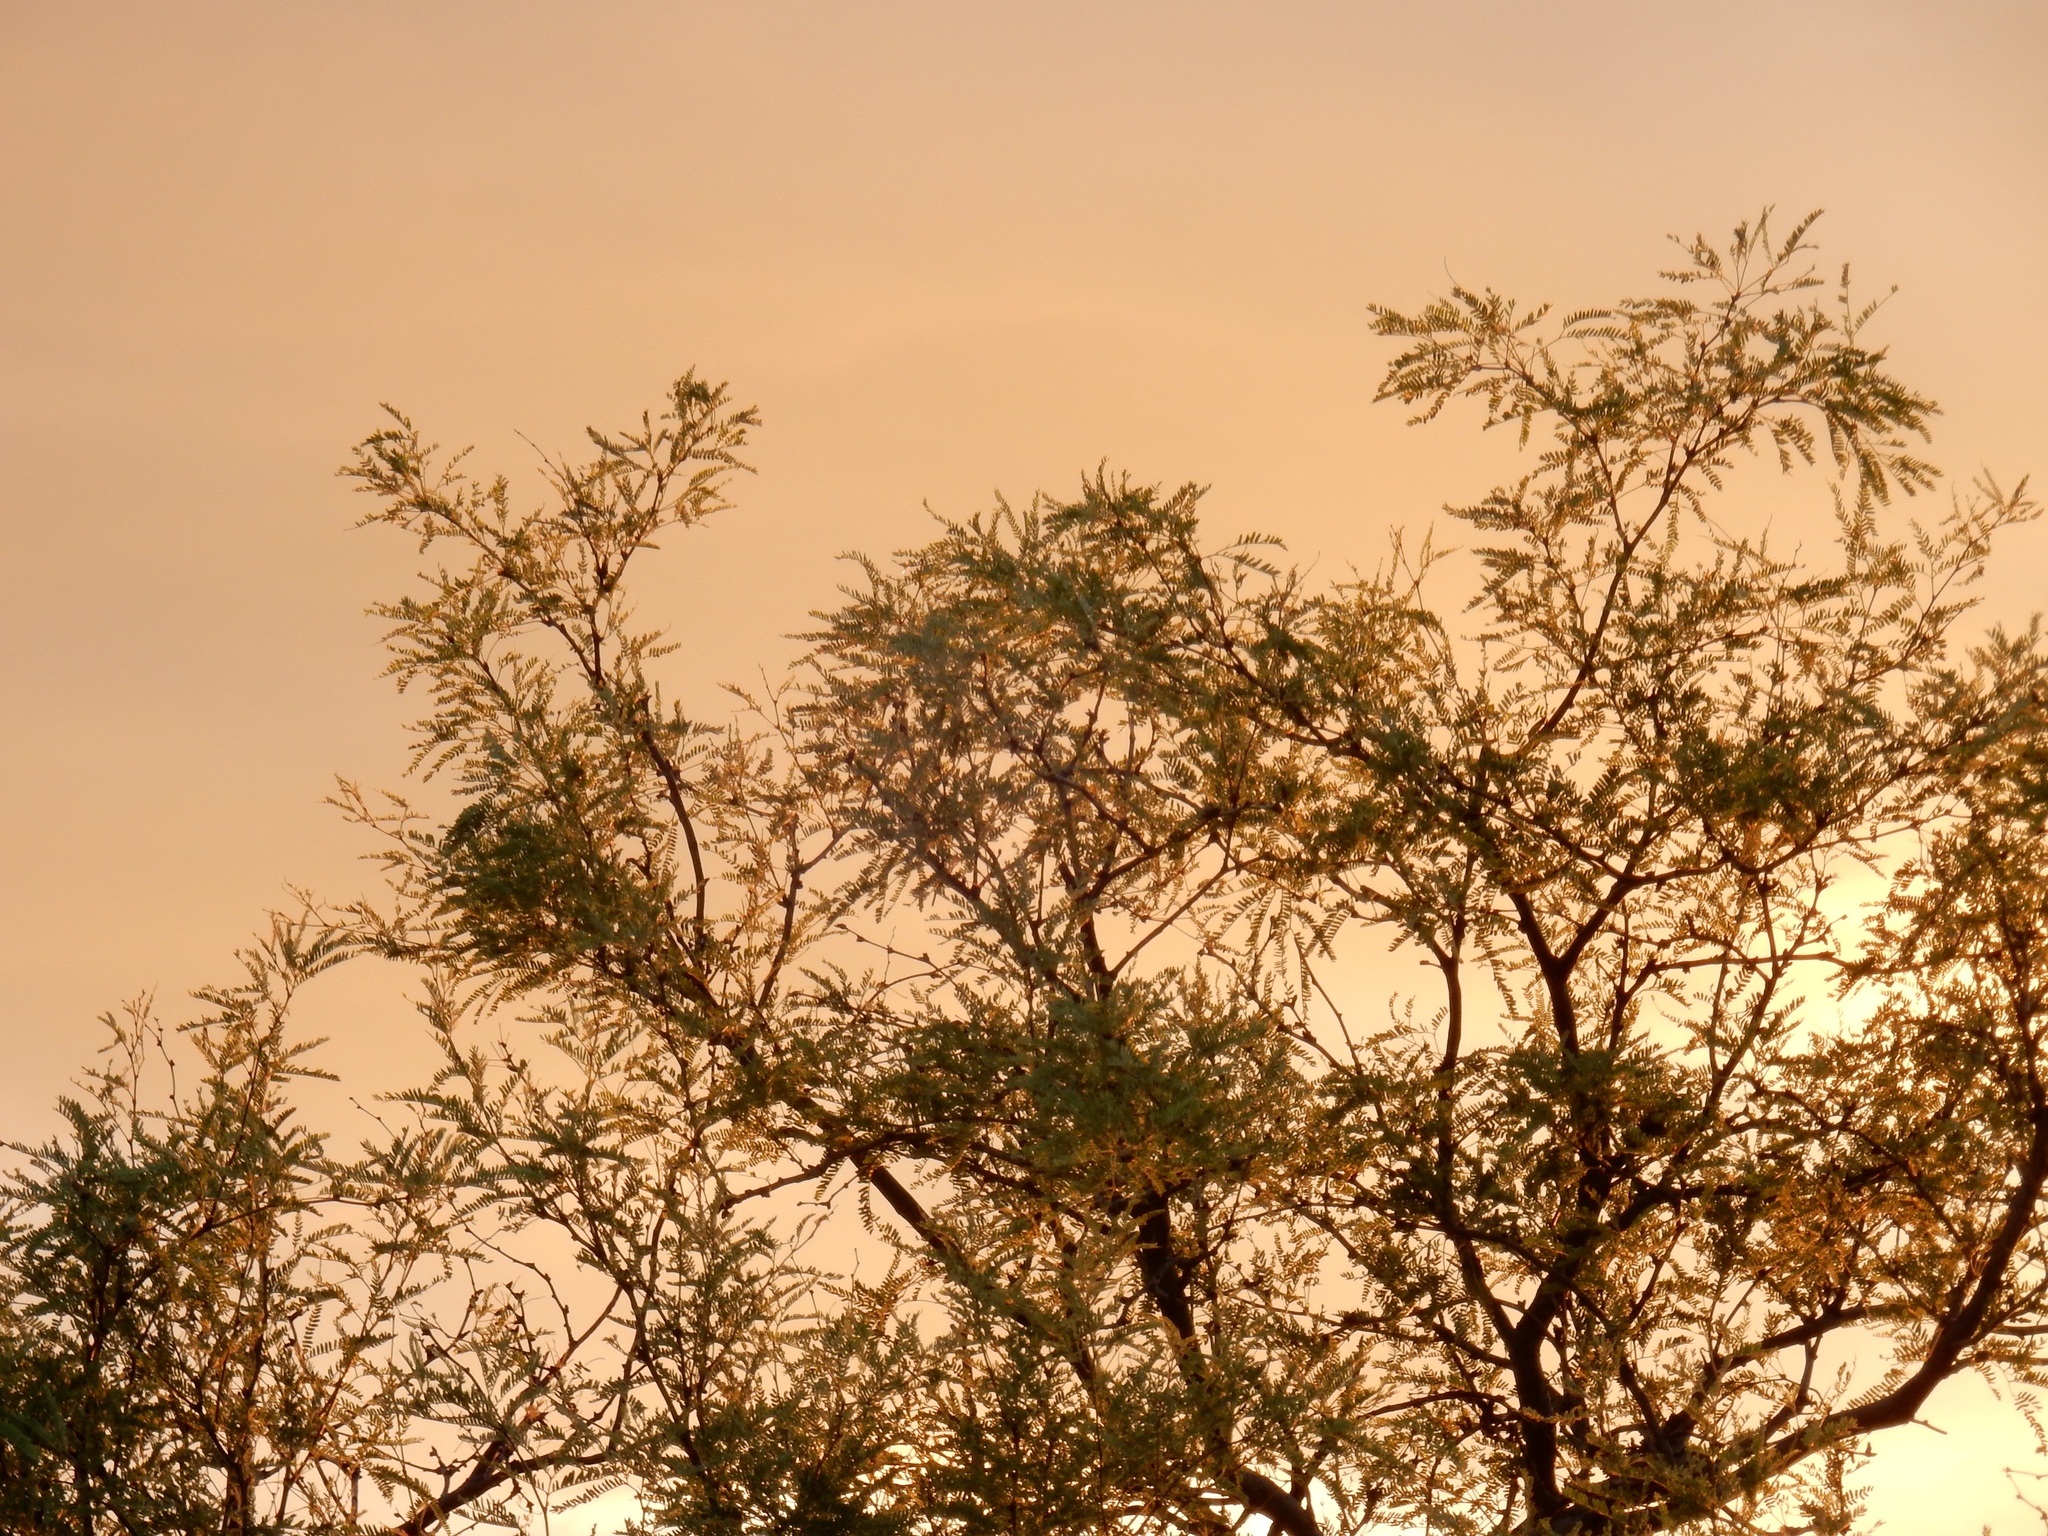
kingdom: Plantae
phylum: Tracheophyta
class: Magnoliopsida
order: Fabales
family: Fabaceae
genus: Prosopis
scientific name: Prosopis velutina
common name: Velvet mesquite
